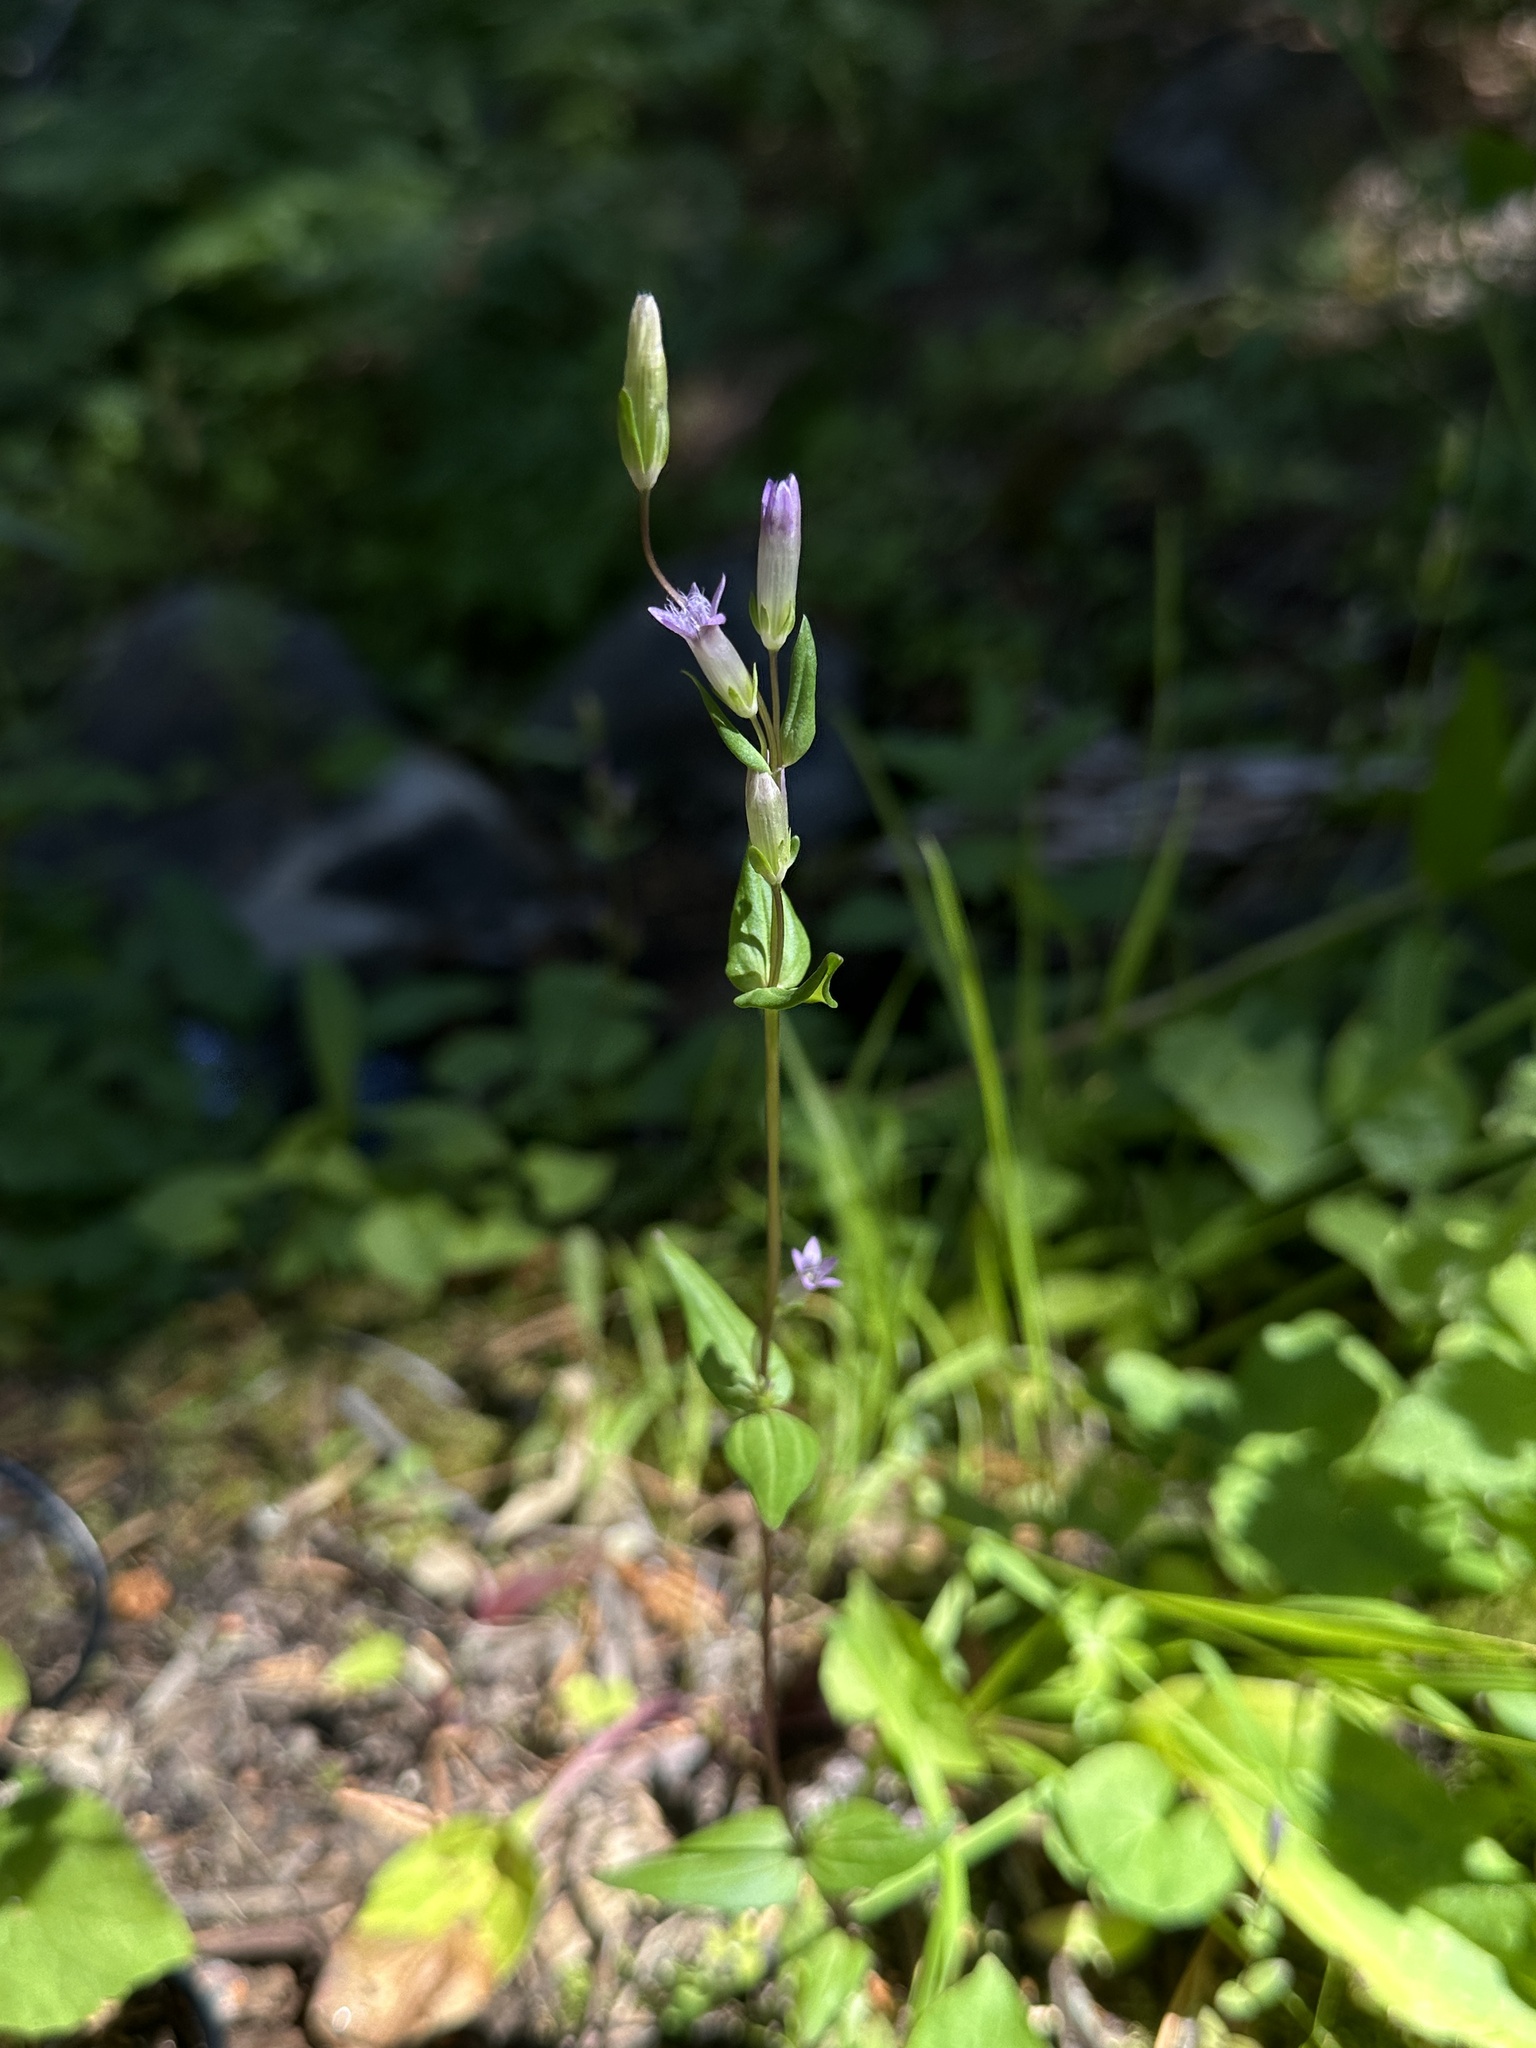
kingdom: Plantae
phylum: Tracheophyta
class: Magnoliopsida
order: Gentianales
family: Gentianaceae
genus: Gentianella
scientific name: Gentianella amarella
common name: Autumn gentian
